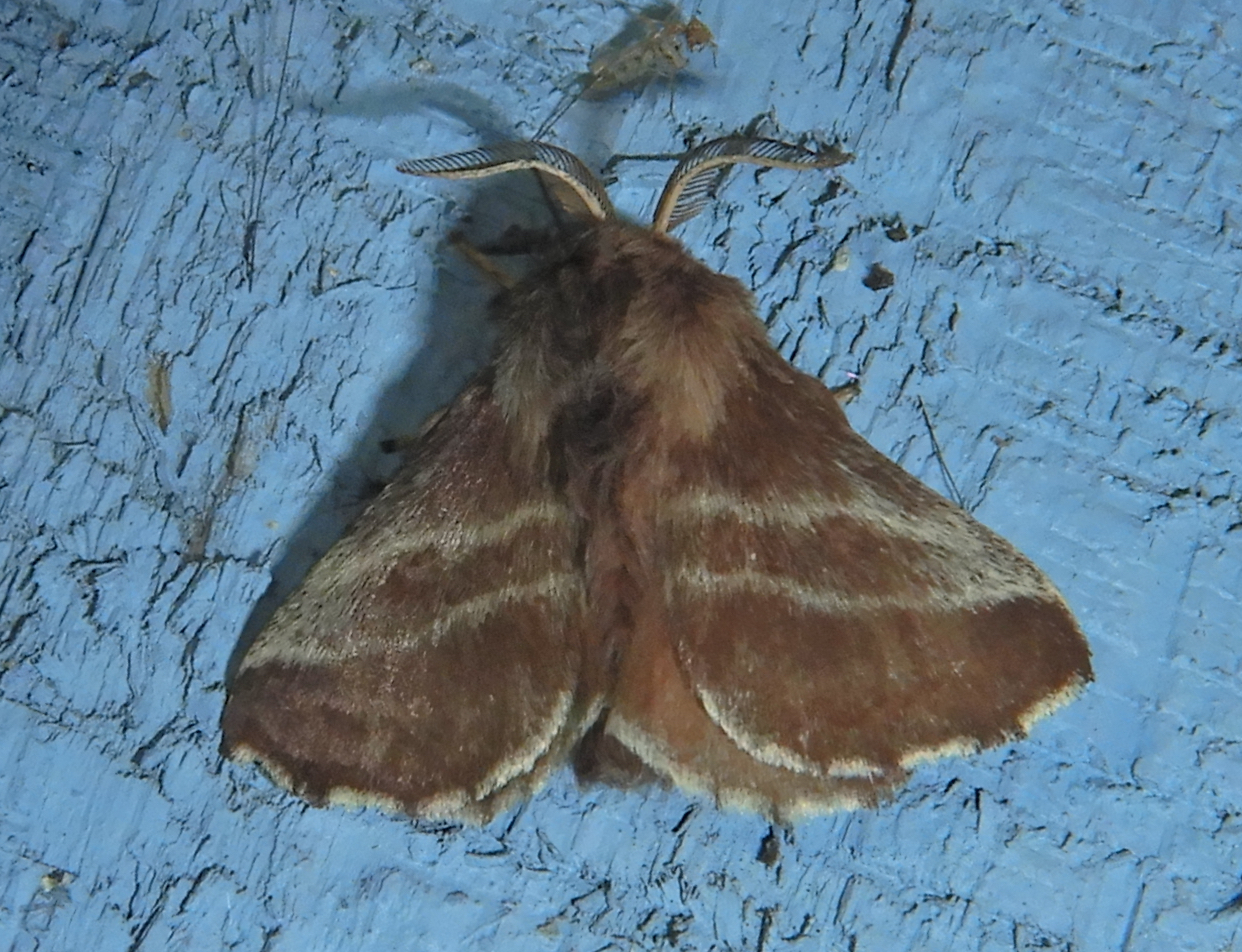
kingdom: Animalia
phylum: Arthropoda
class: Insecta
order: Lepidoptera
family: Lasiocampidae
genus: Malacosoma
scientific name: Malacosoma americana
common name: Eastern tent caterpillar moth
